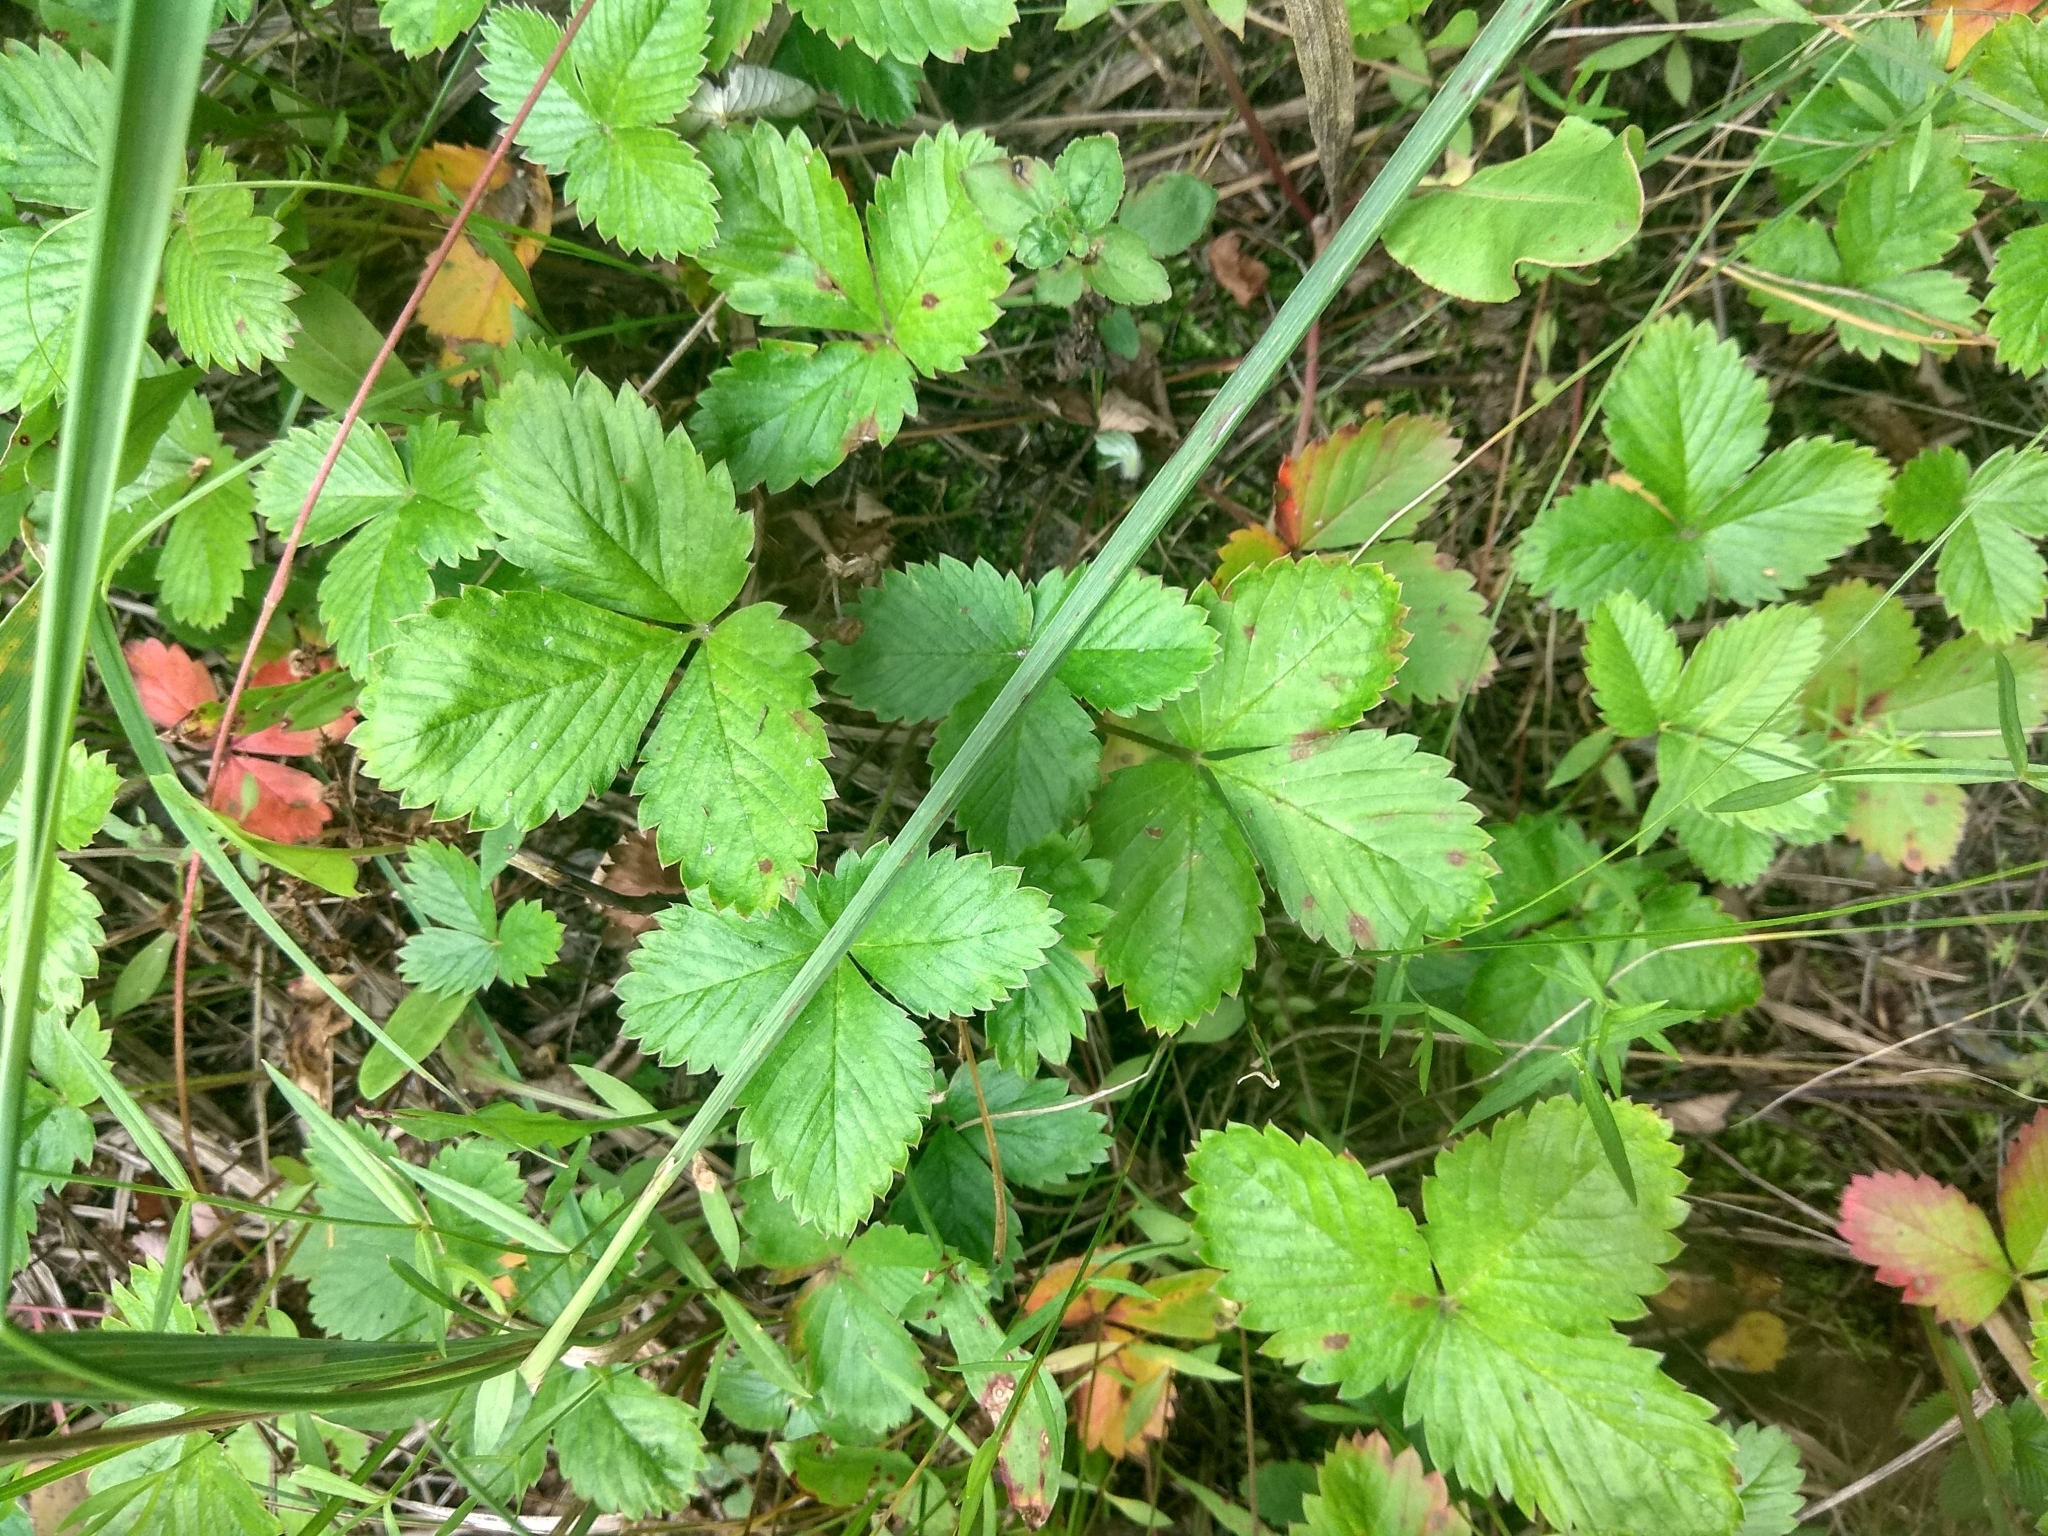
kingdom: Plantae
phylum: Tracheophyta
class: Magnoliopsida
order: Rosales
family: Rosaceae
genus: Fragaria
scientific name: Fragaria vesca
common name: Wild strawberry
